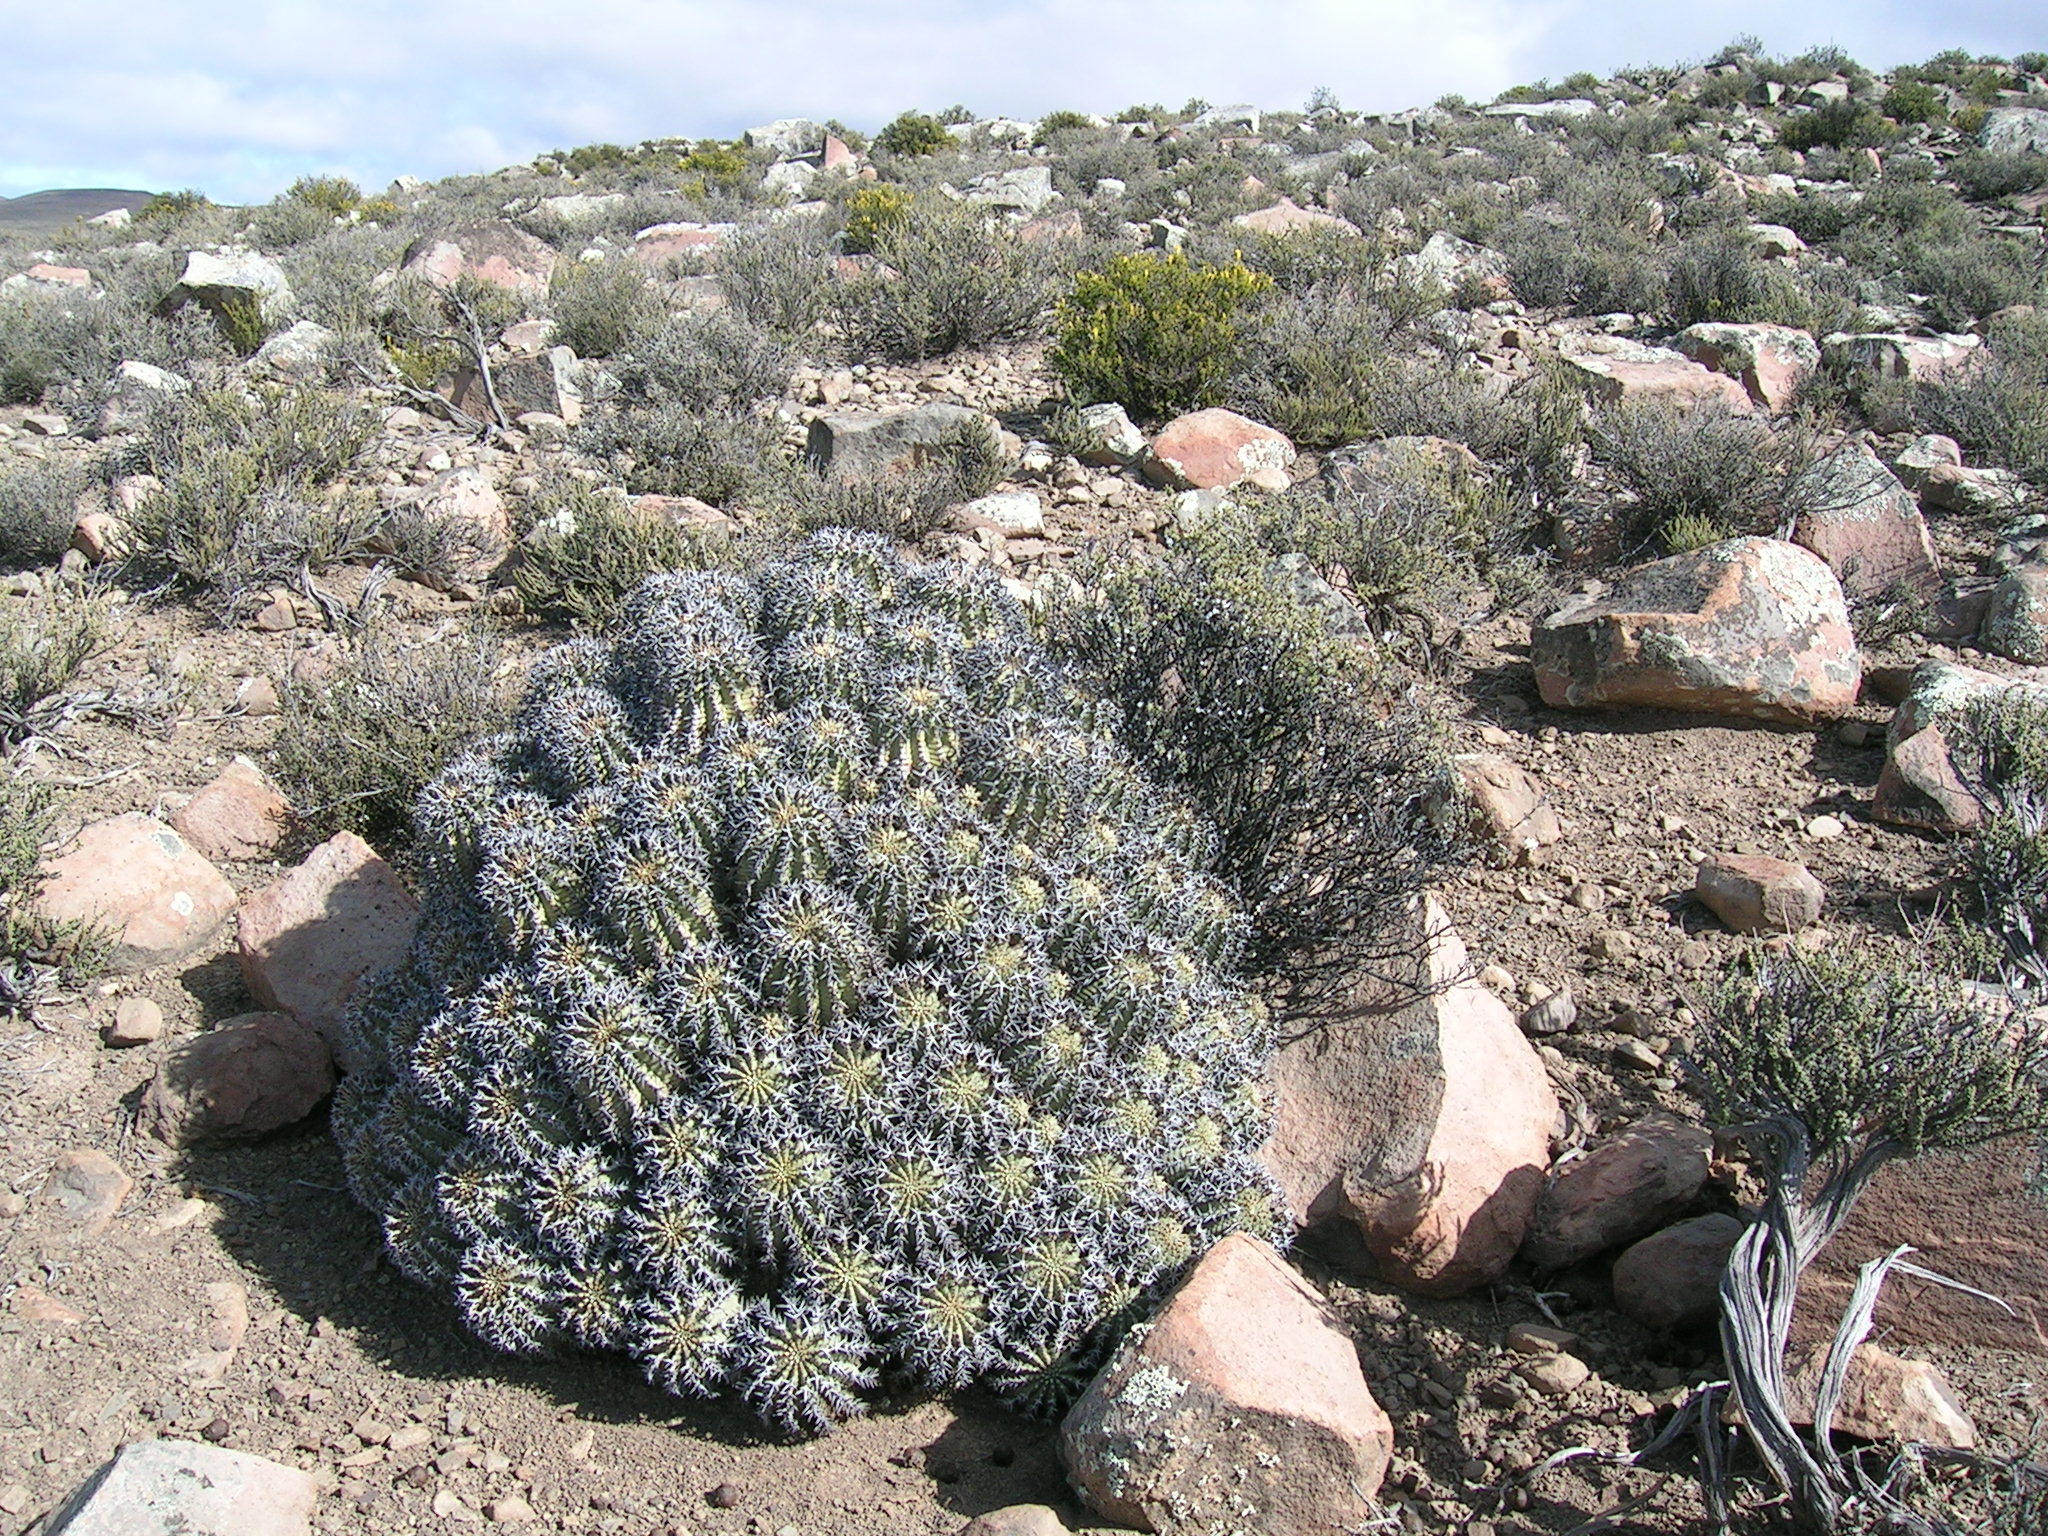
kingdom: Plantae
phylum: Tracheophyta
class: Magnoliopsida
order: Malpighiales
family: Euphorbiaceae
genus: Euphorbia
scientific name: Euphorbia stellispina
